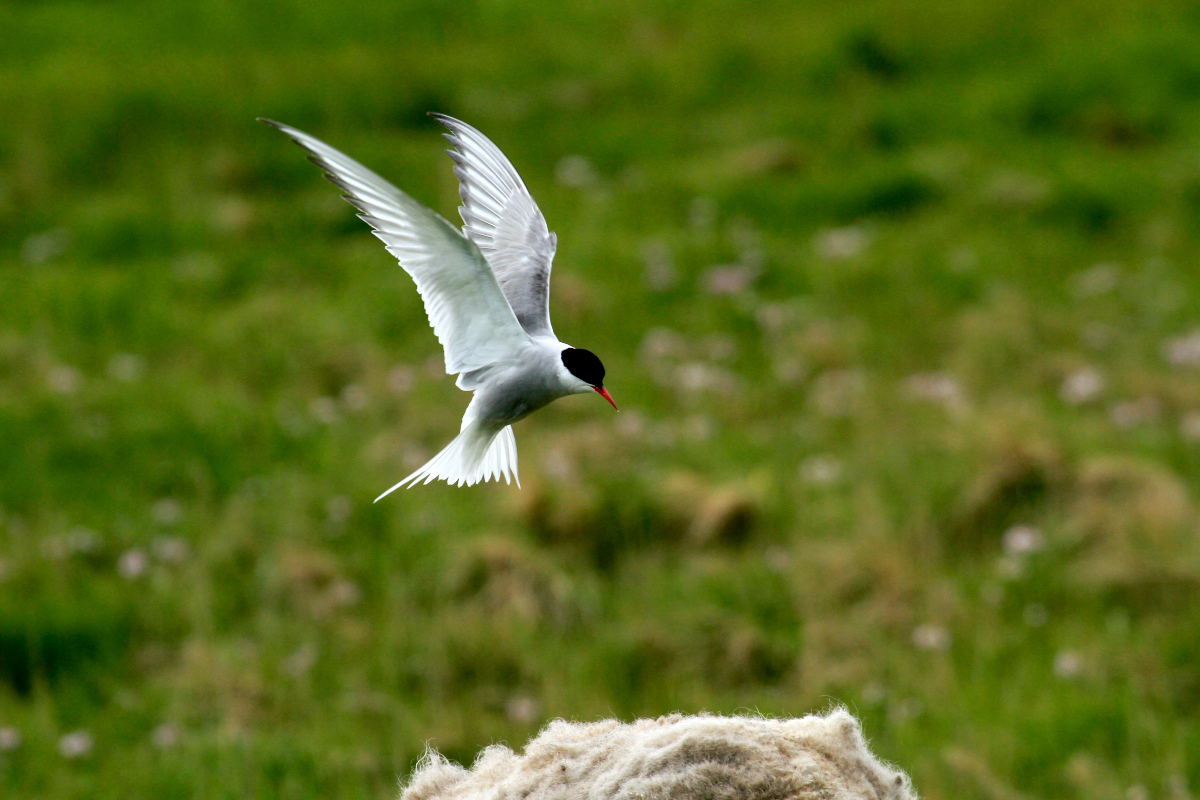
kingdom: Animalia
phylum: Chordata
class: Aves
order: Charadriiformes
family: Laridae
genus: Sterna
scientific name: Sterna paradisaea
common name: Arctic tern
